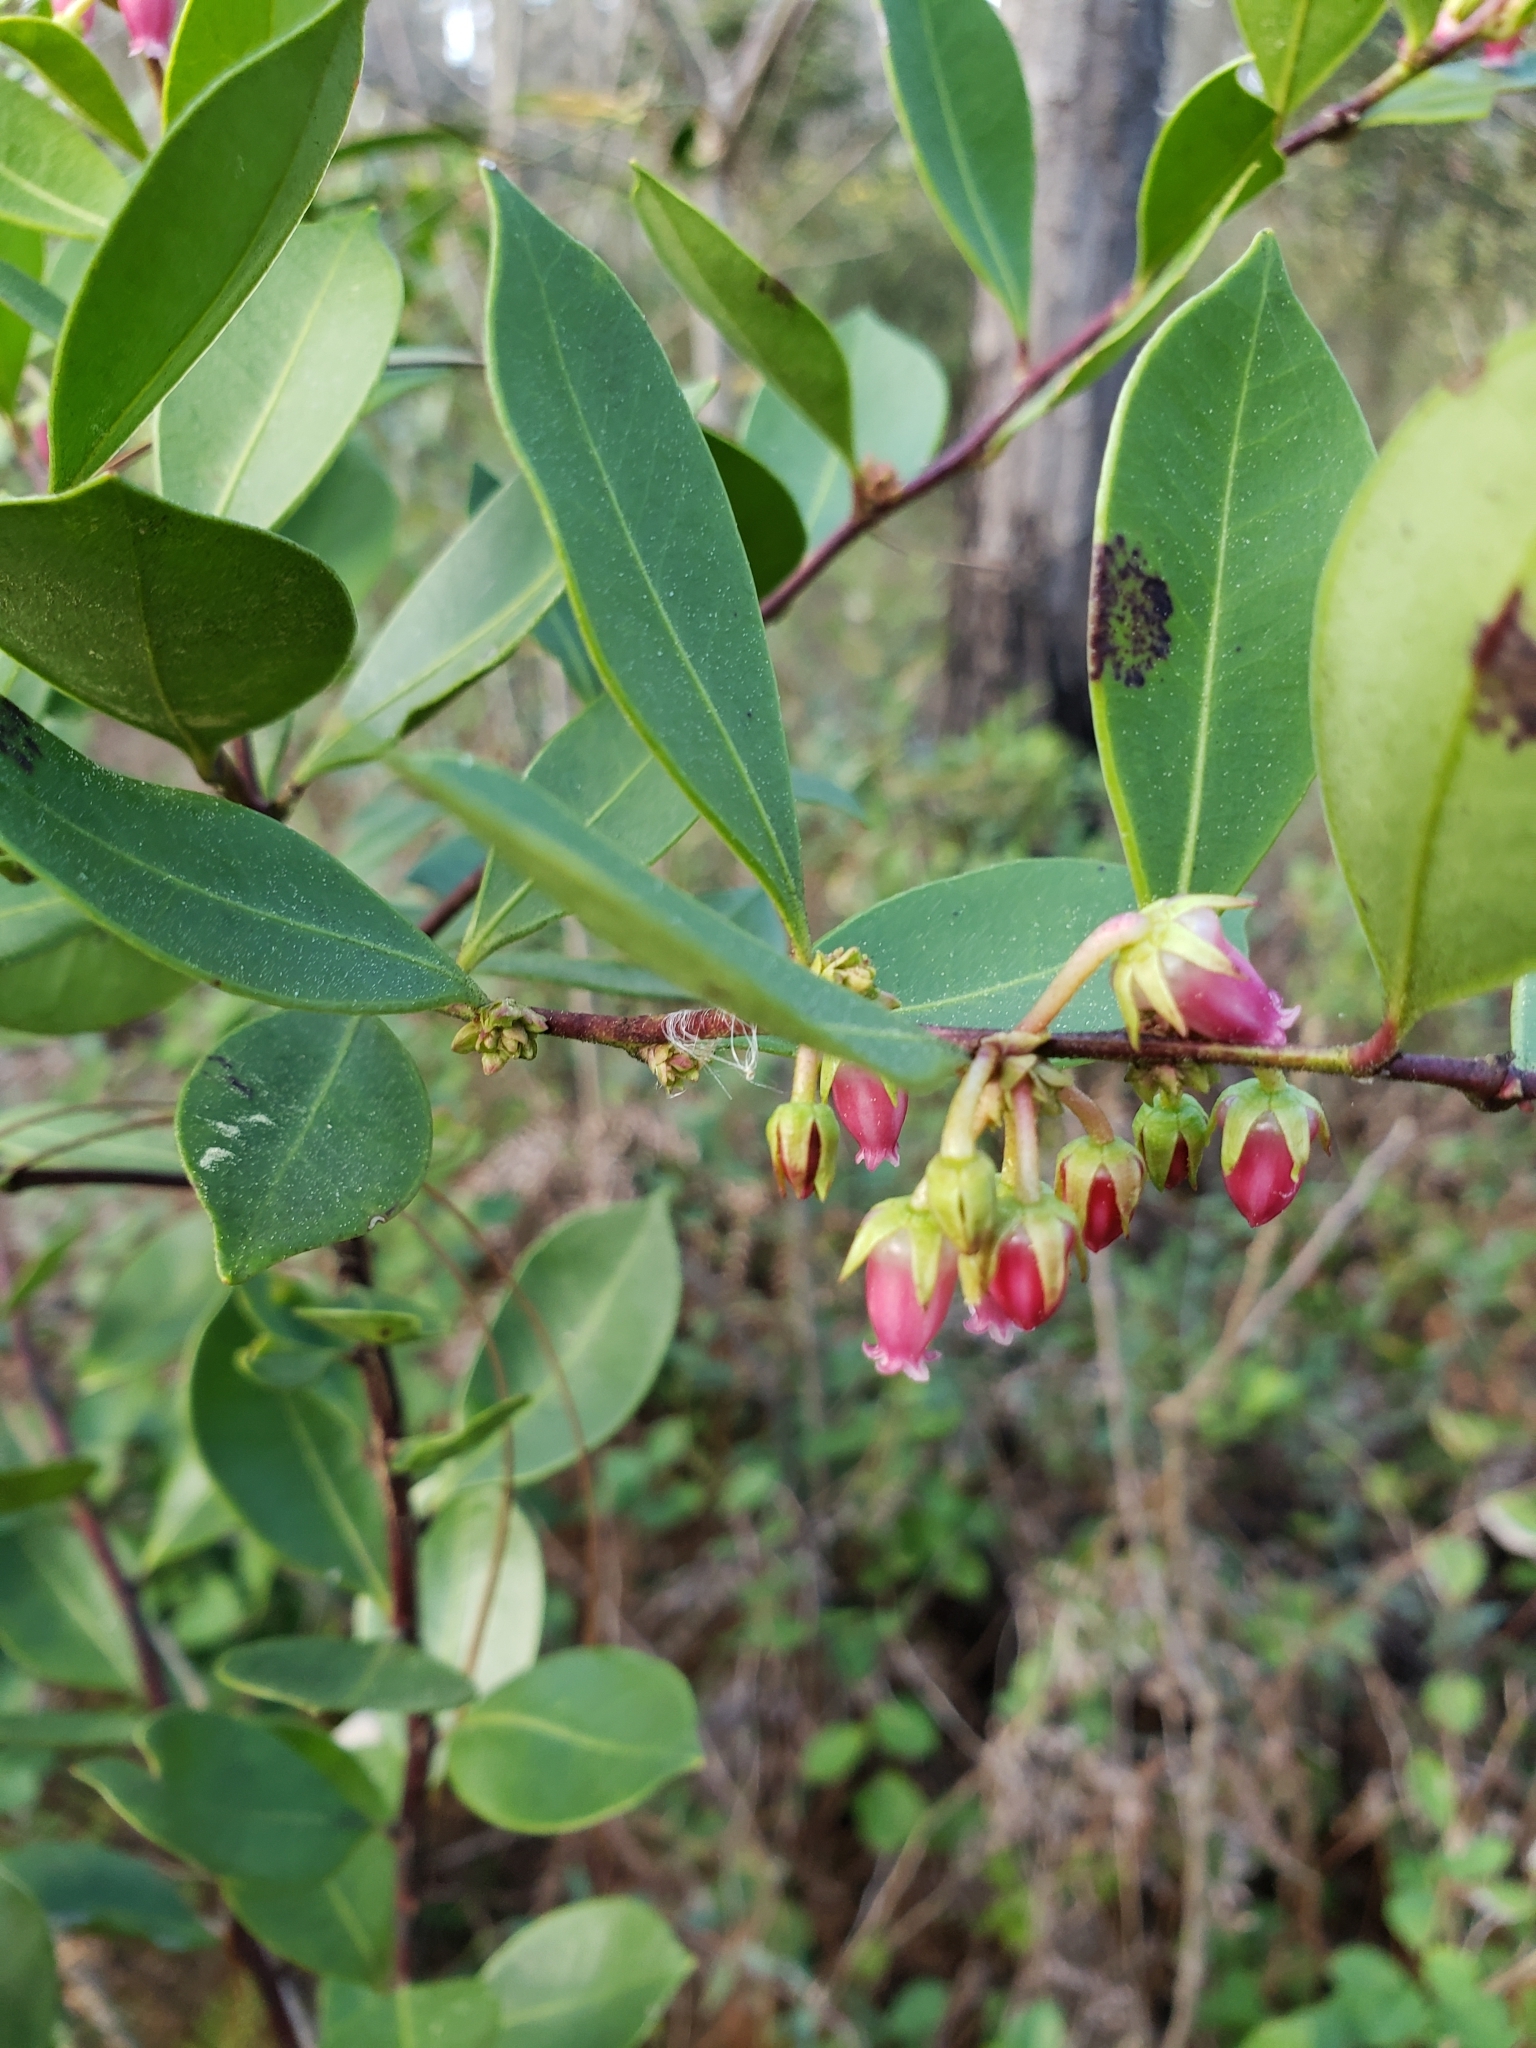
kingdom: Plantae
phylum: Tracheophyta
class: Magnoliopsida
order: Ericales
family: Ericaceae
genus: Lyonia
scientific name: Lyonia lucida
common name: Fetterbush
